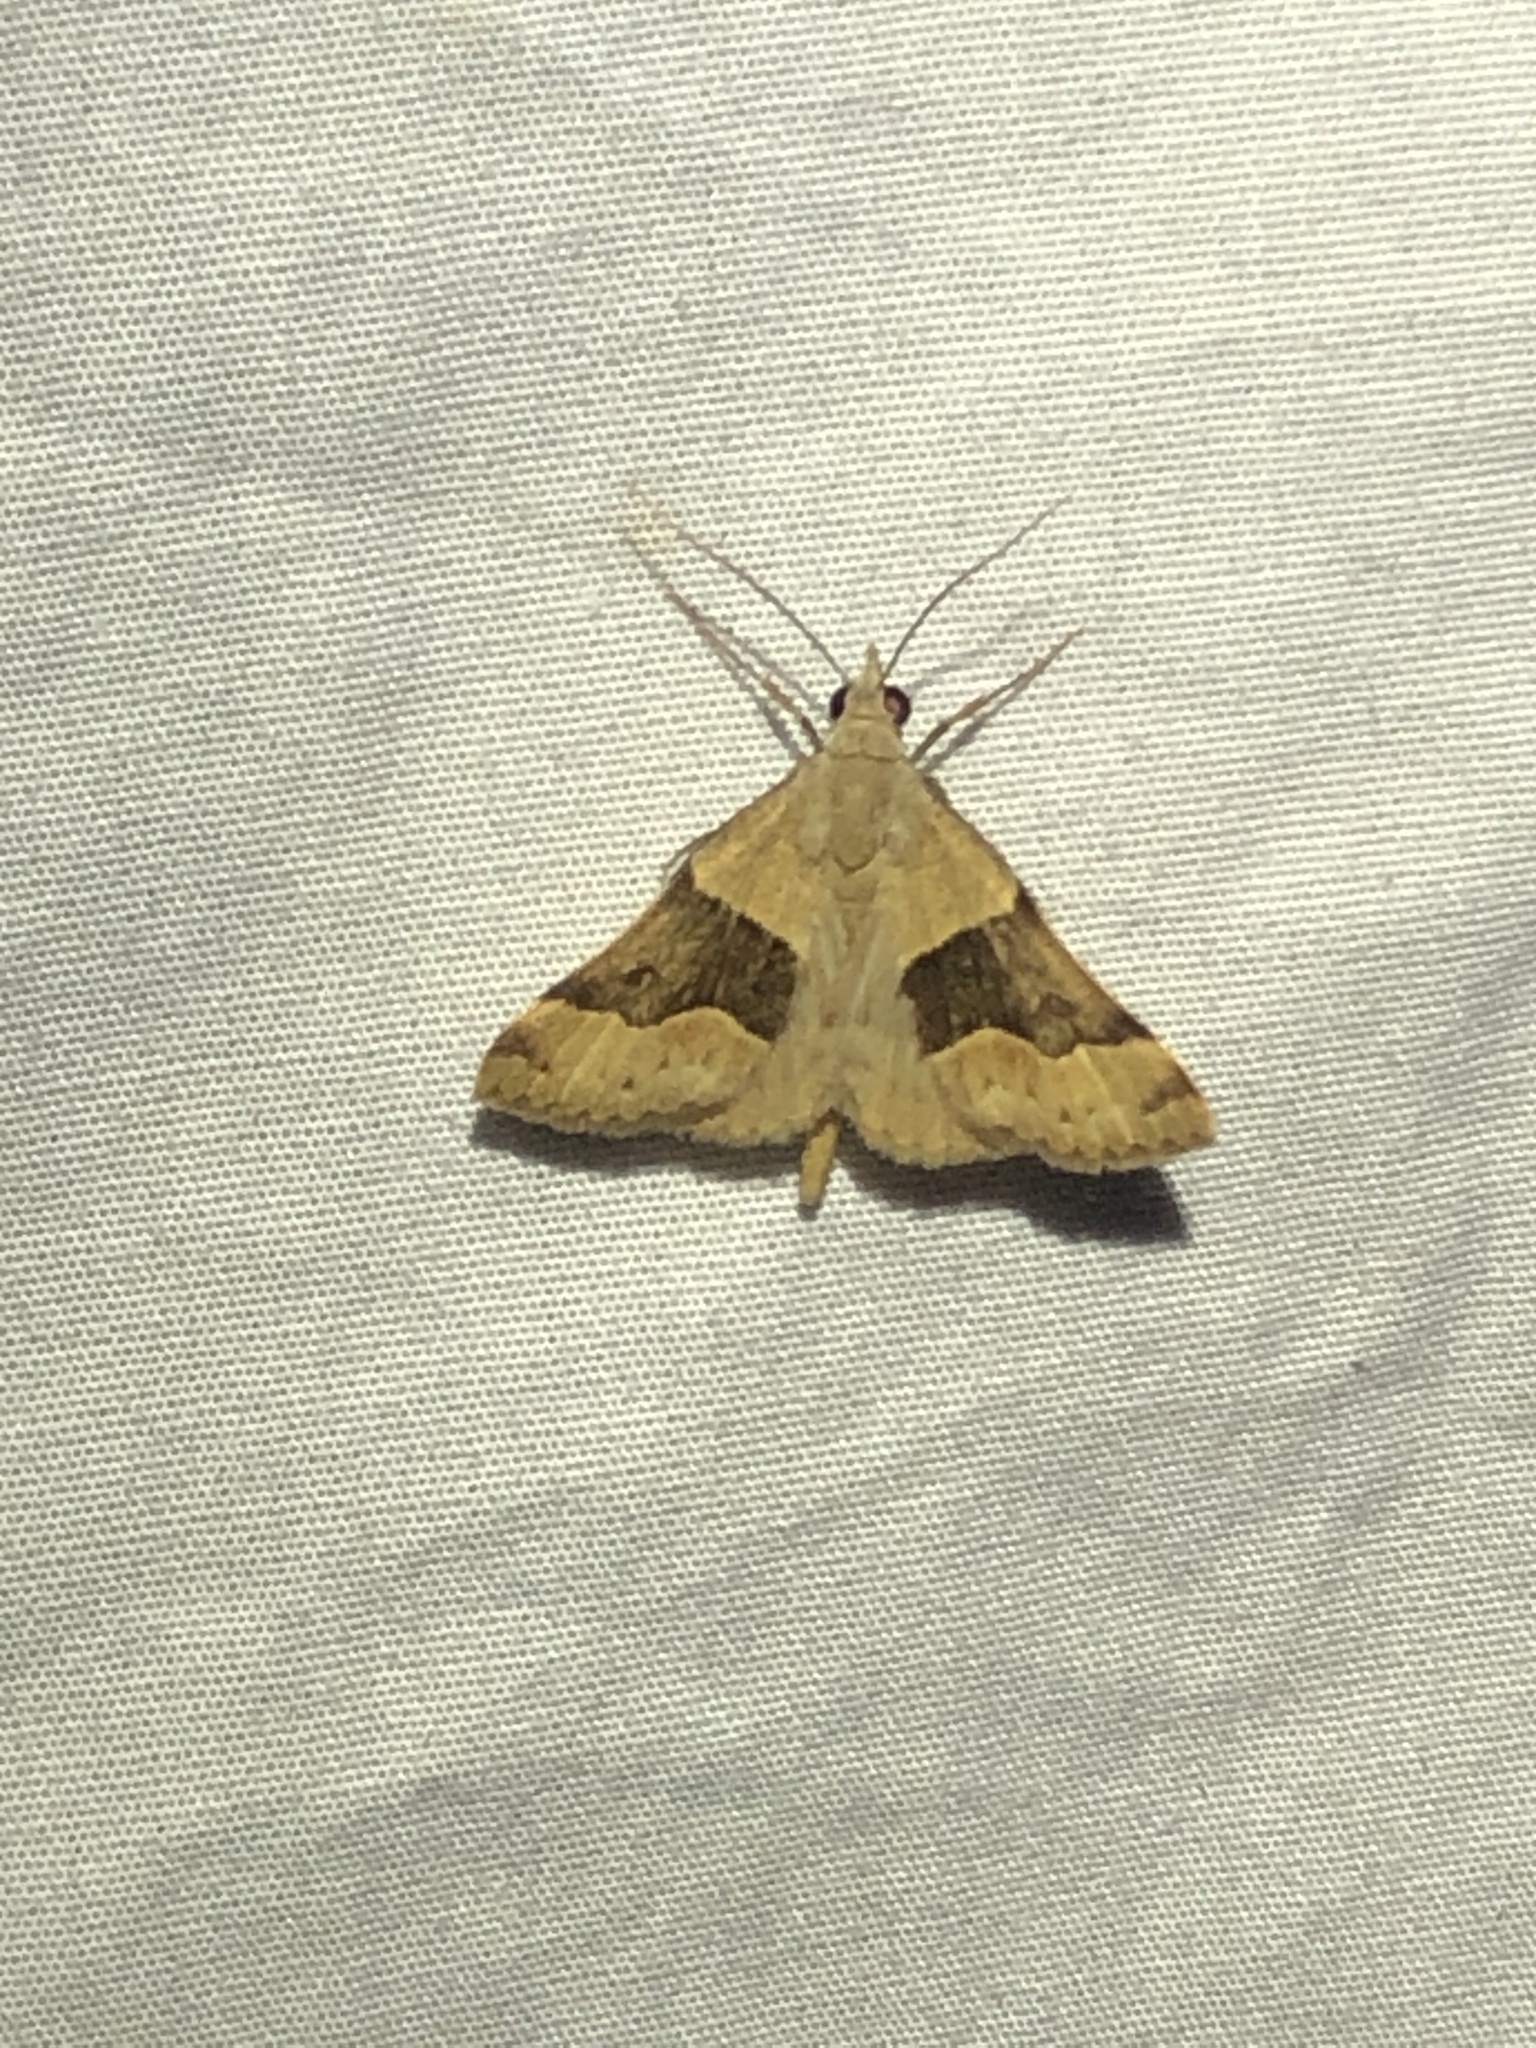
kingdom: Animalia
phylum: Arthropoda
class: Insecta
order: Lepidoptera
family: Erebidae
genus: Hemeroplanis
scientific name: Hemeroplanis incusalis
